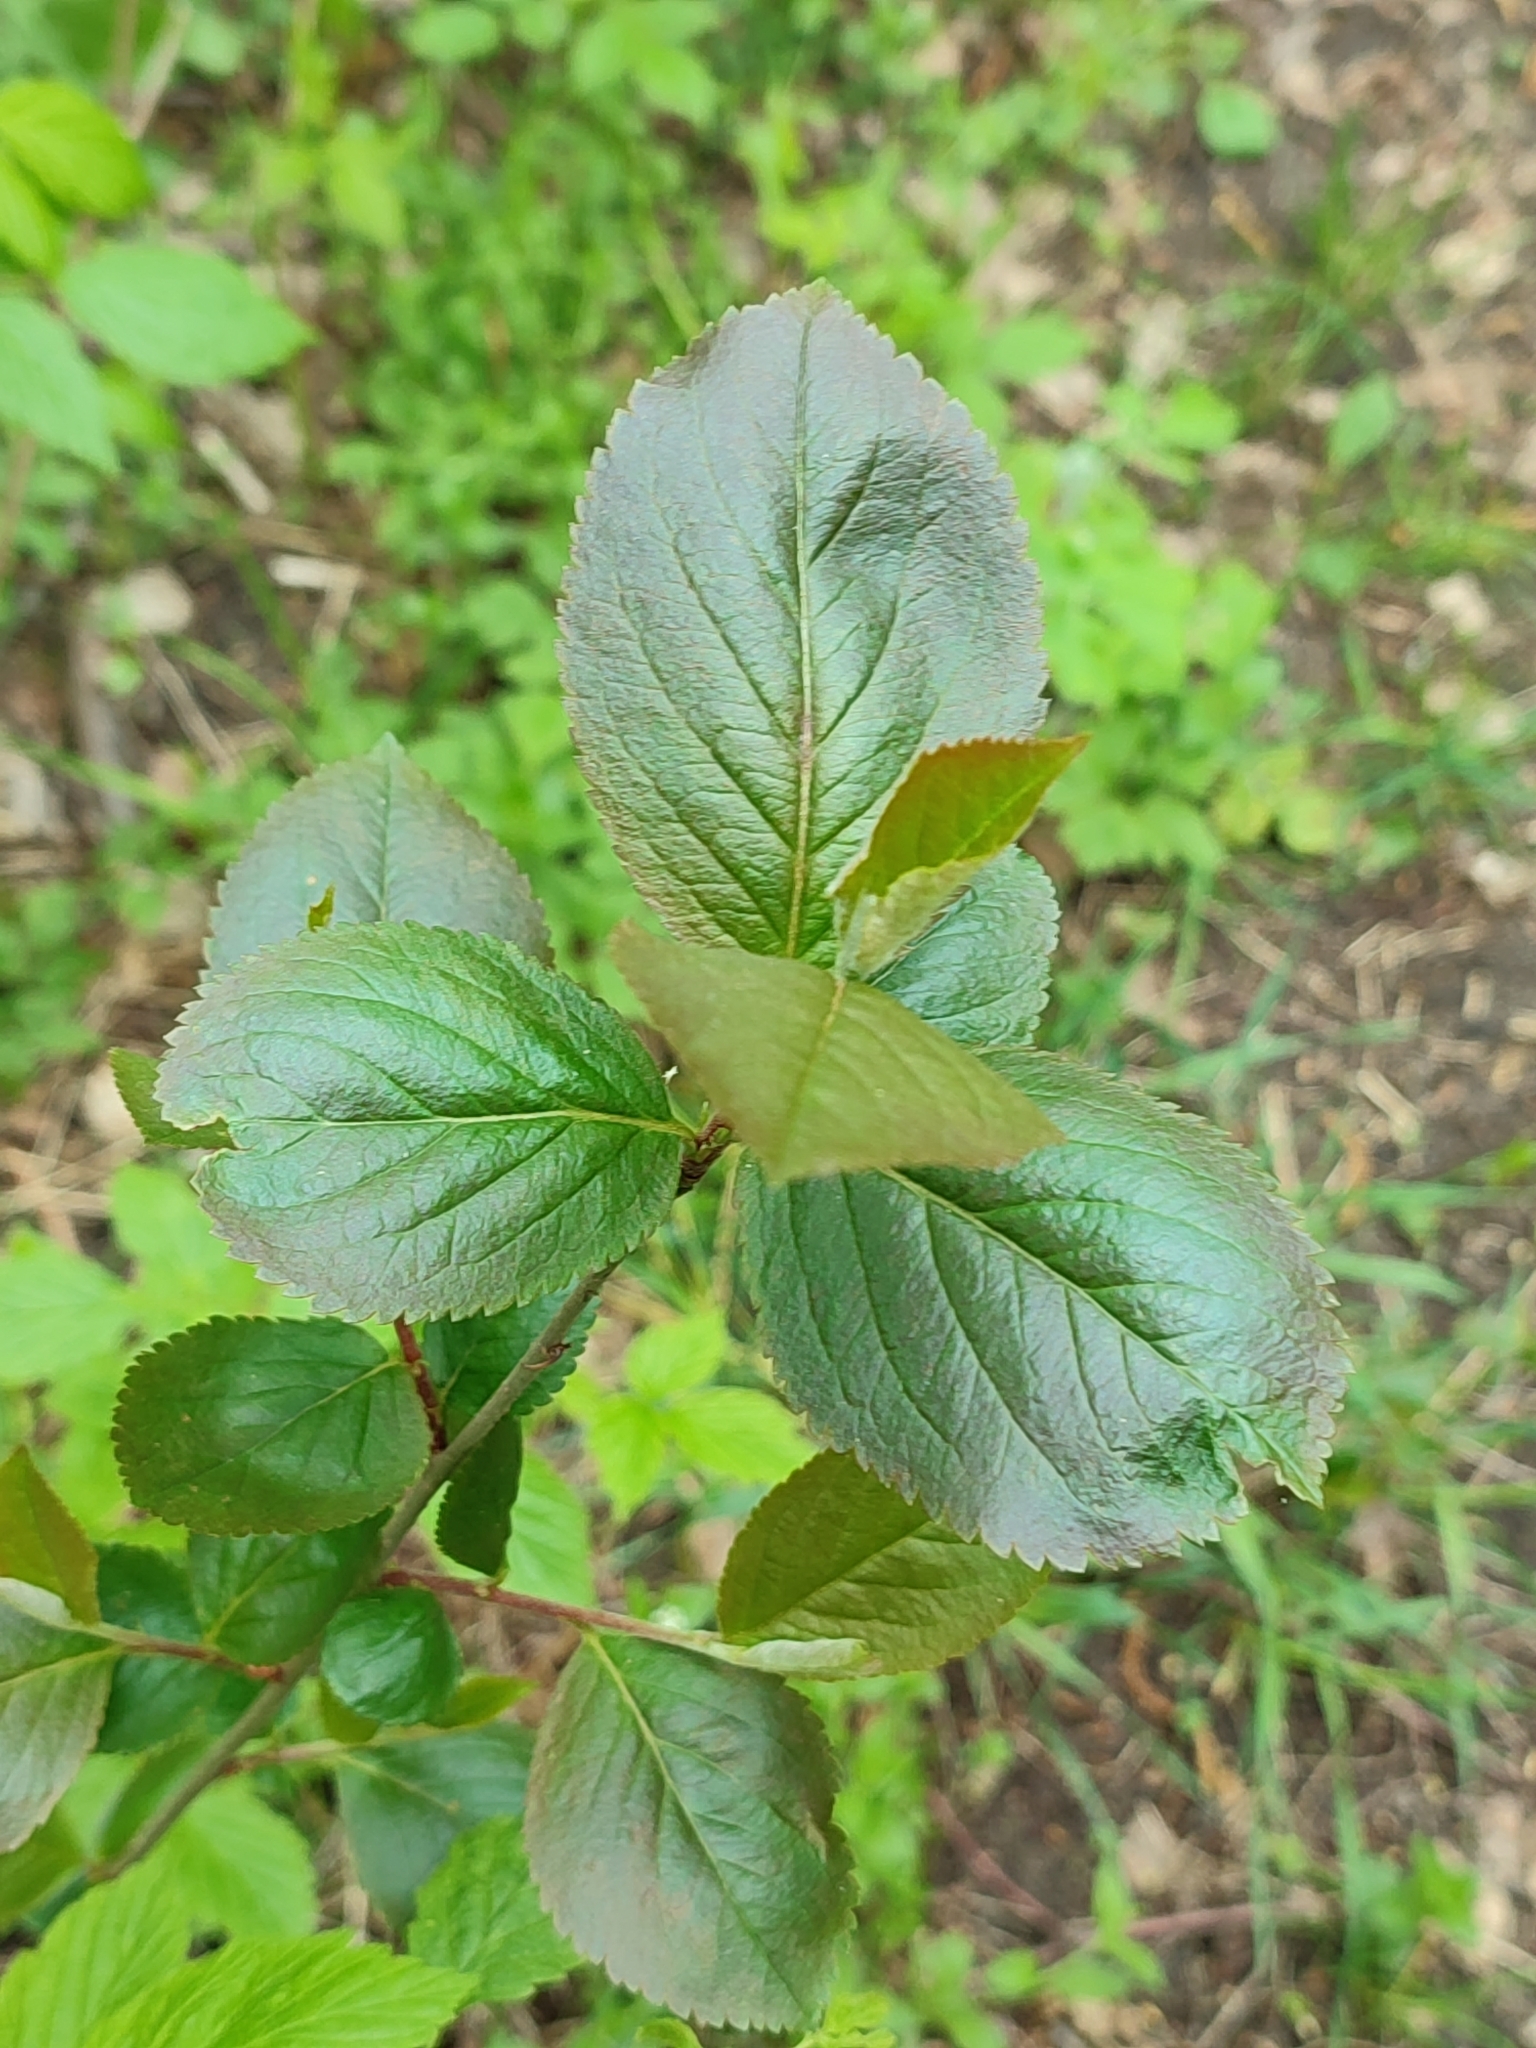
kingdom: Plantae
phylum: Tracheophyta
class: Magnoliopsida
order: Rosales
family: Rosaceae
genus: Sorbaronia
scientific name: Sorbaronia arsenii
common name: Arsène's mountain-ash
